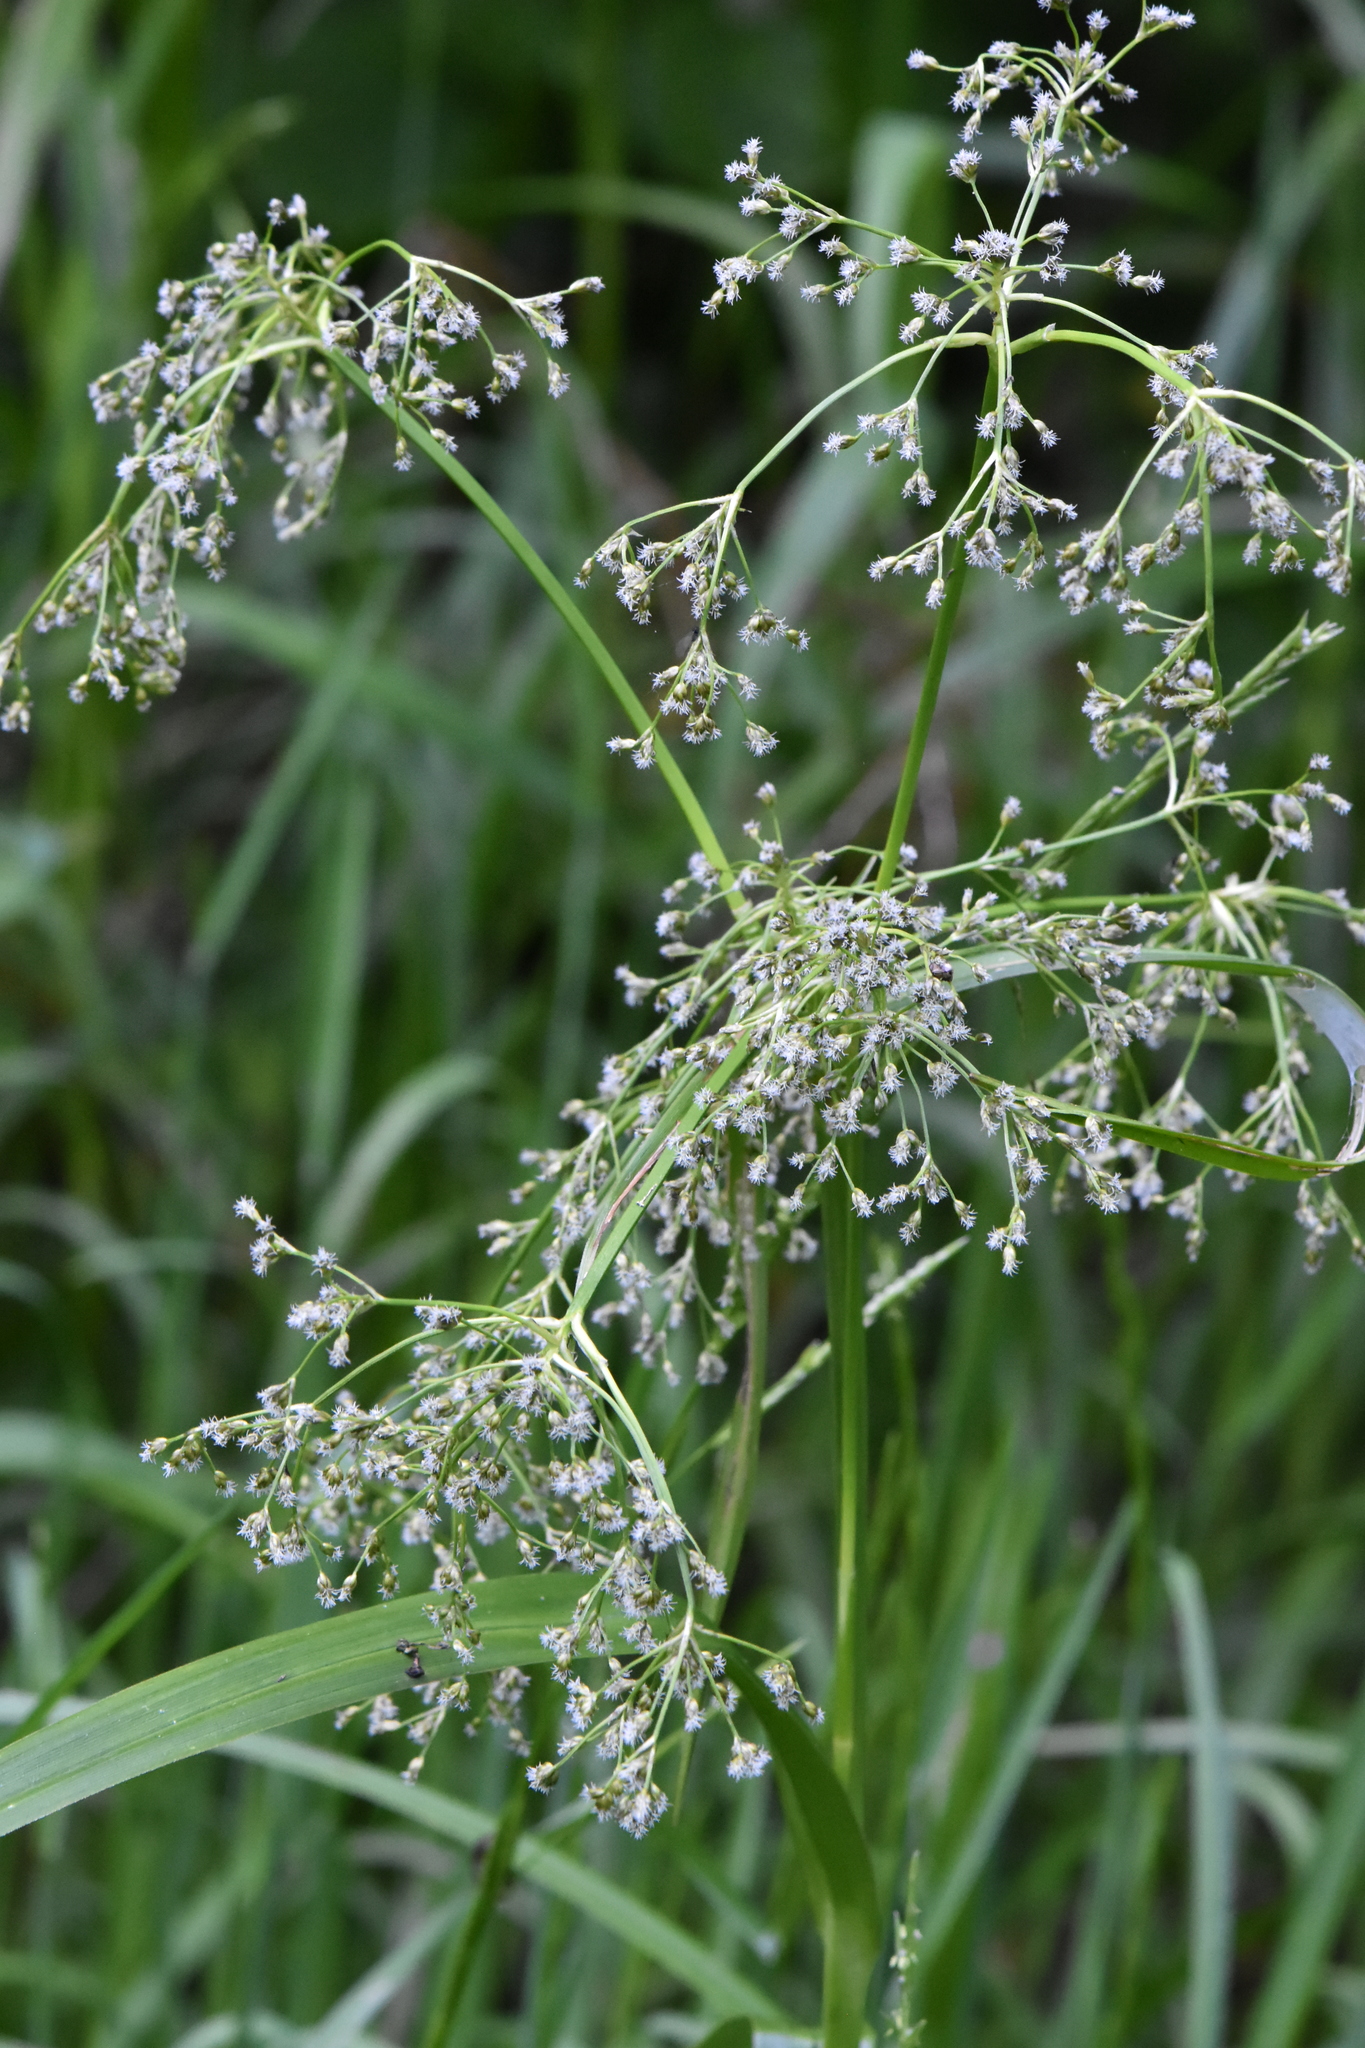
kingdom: Plantae
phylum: Tracheophyta
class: Liliopsida
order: Poales
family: Cyperaceae
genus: Scirpus
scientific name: Scirpus sylvaticus
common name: Wood club-rush
